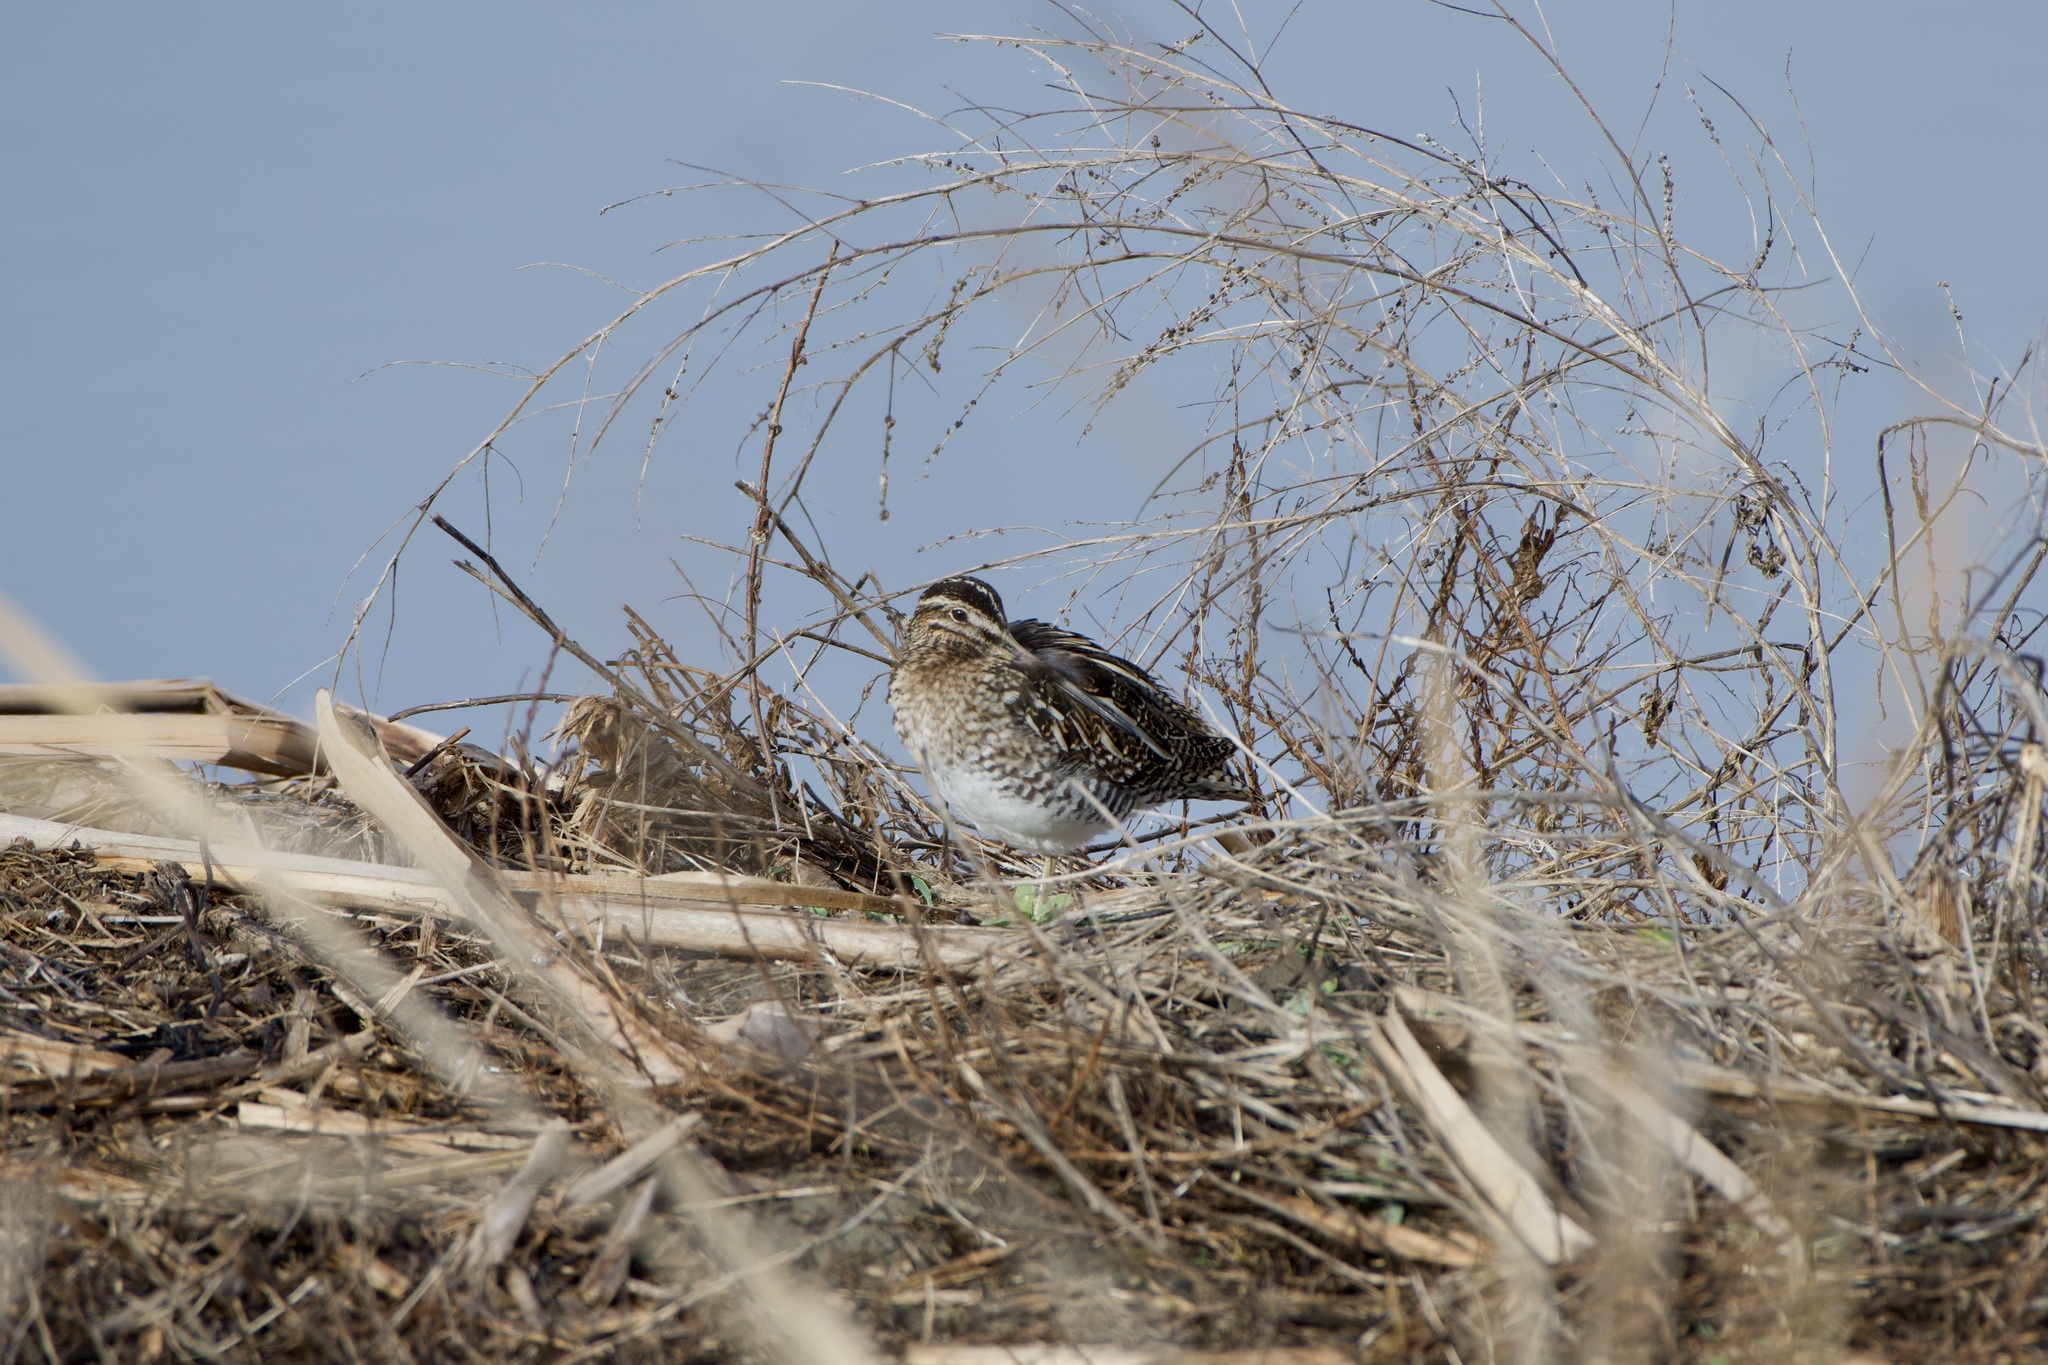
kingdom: Animalia
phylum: Chordata
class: Aves
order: Charadriiformes
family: Scolopacidae
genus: Gallinago
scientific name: Gallinago delicata
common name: Wilson's snipe
